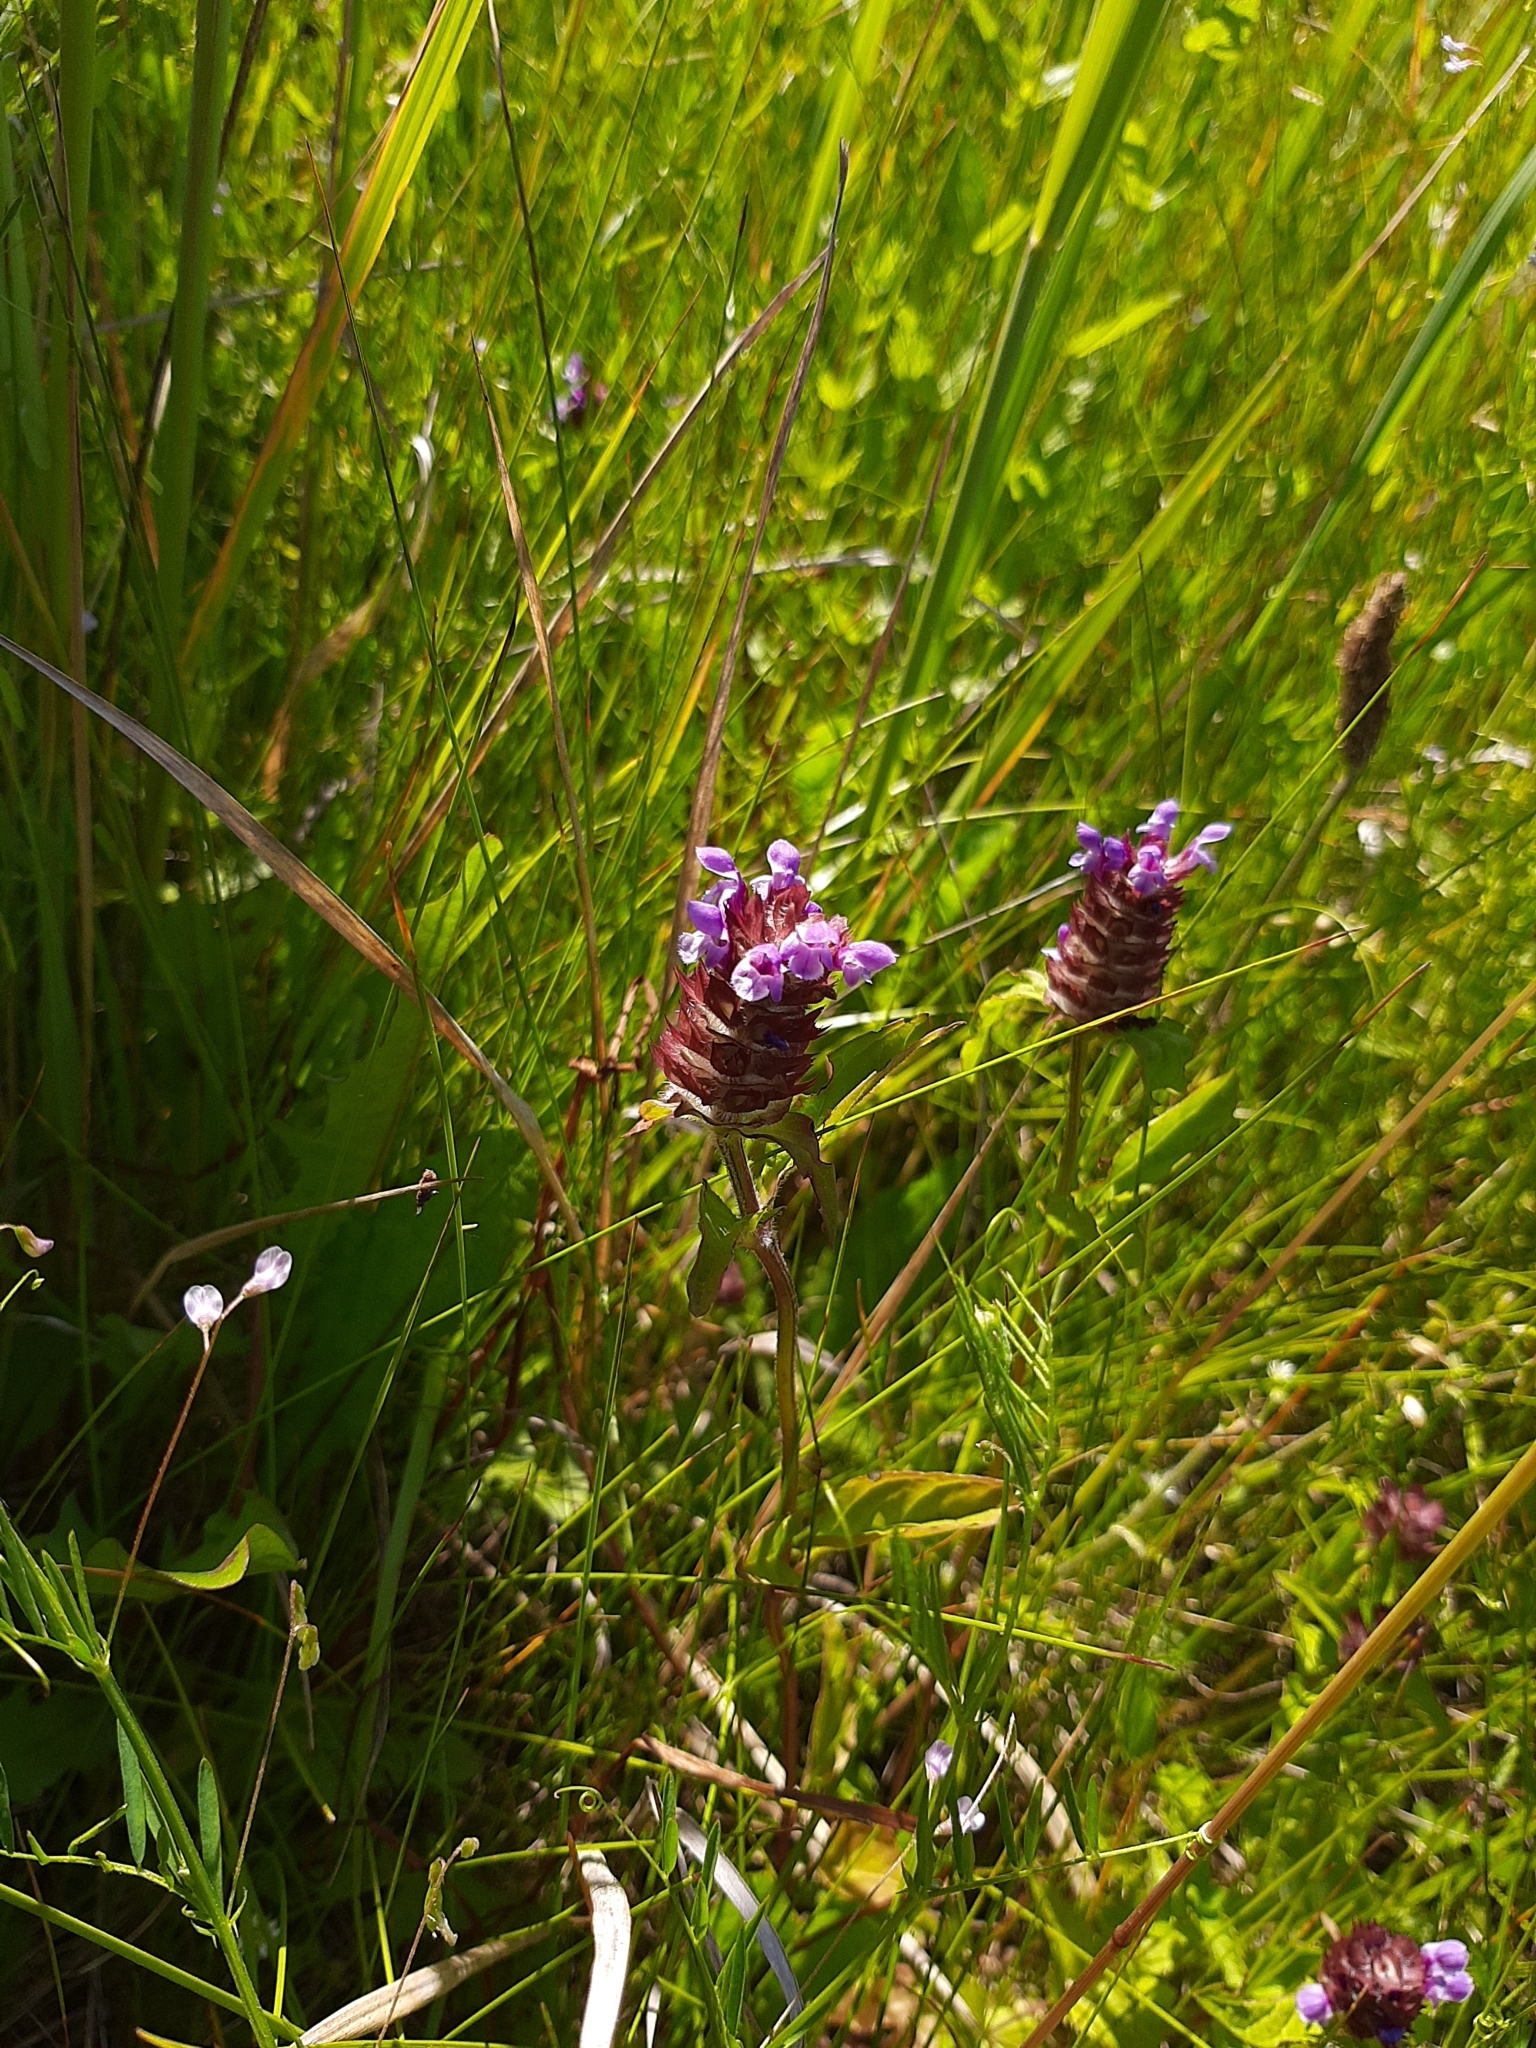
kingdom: Plantae
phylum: Tracheophyta
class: Magnoliopsida
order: Lamiales
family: Lamiaceae
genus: Prunella
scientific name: Prunella vulgaris
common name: Heal-all
